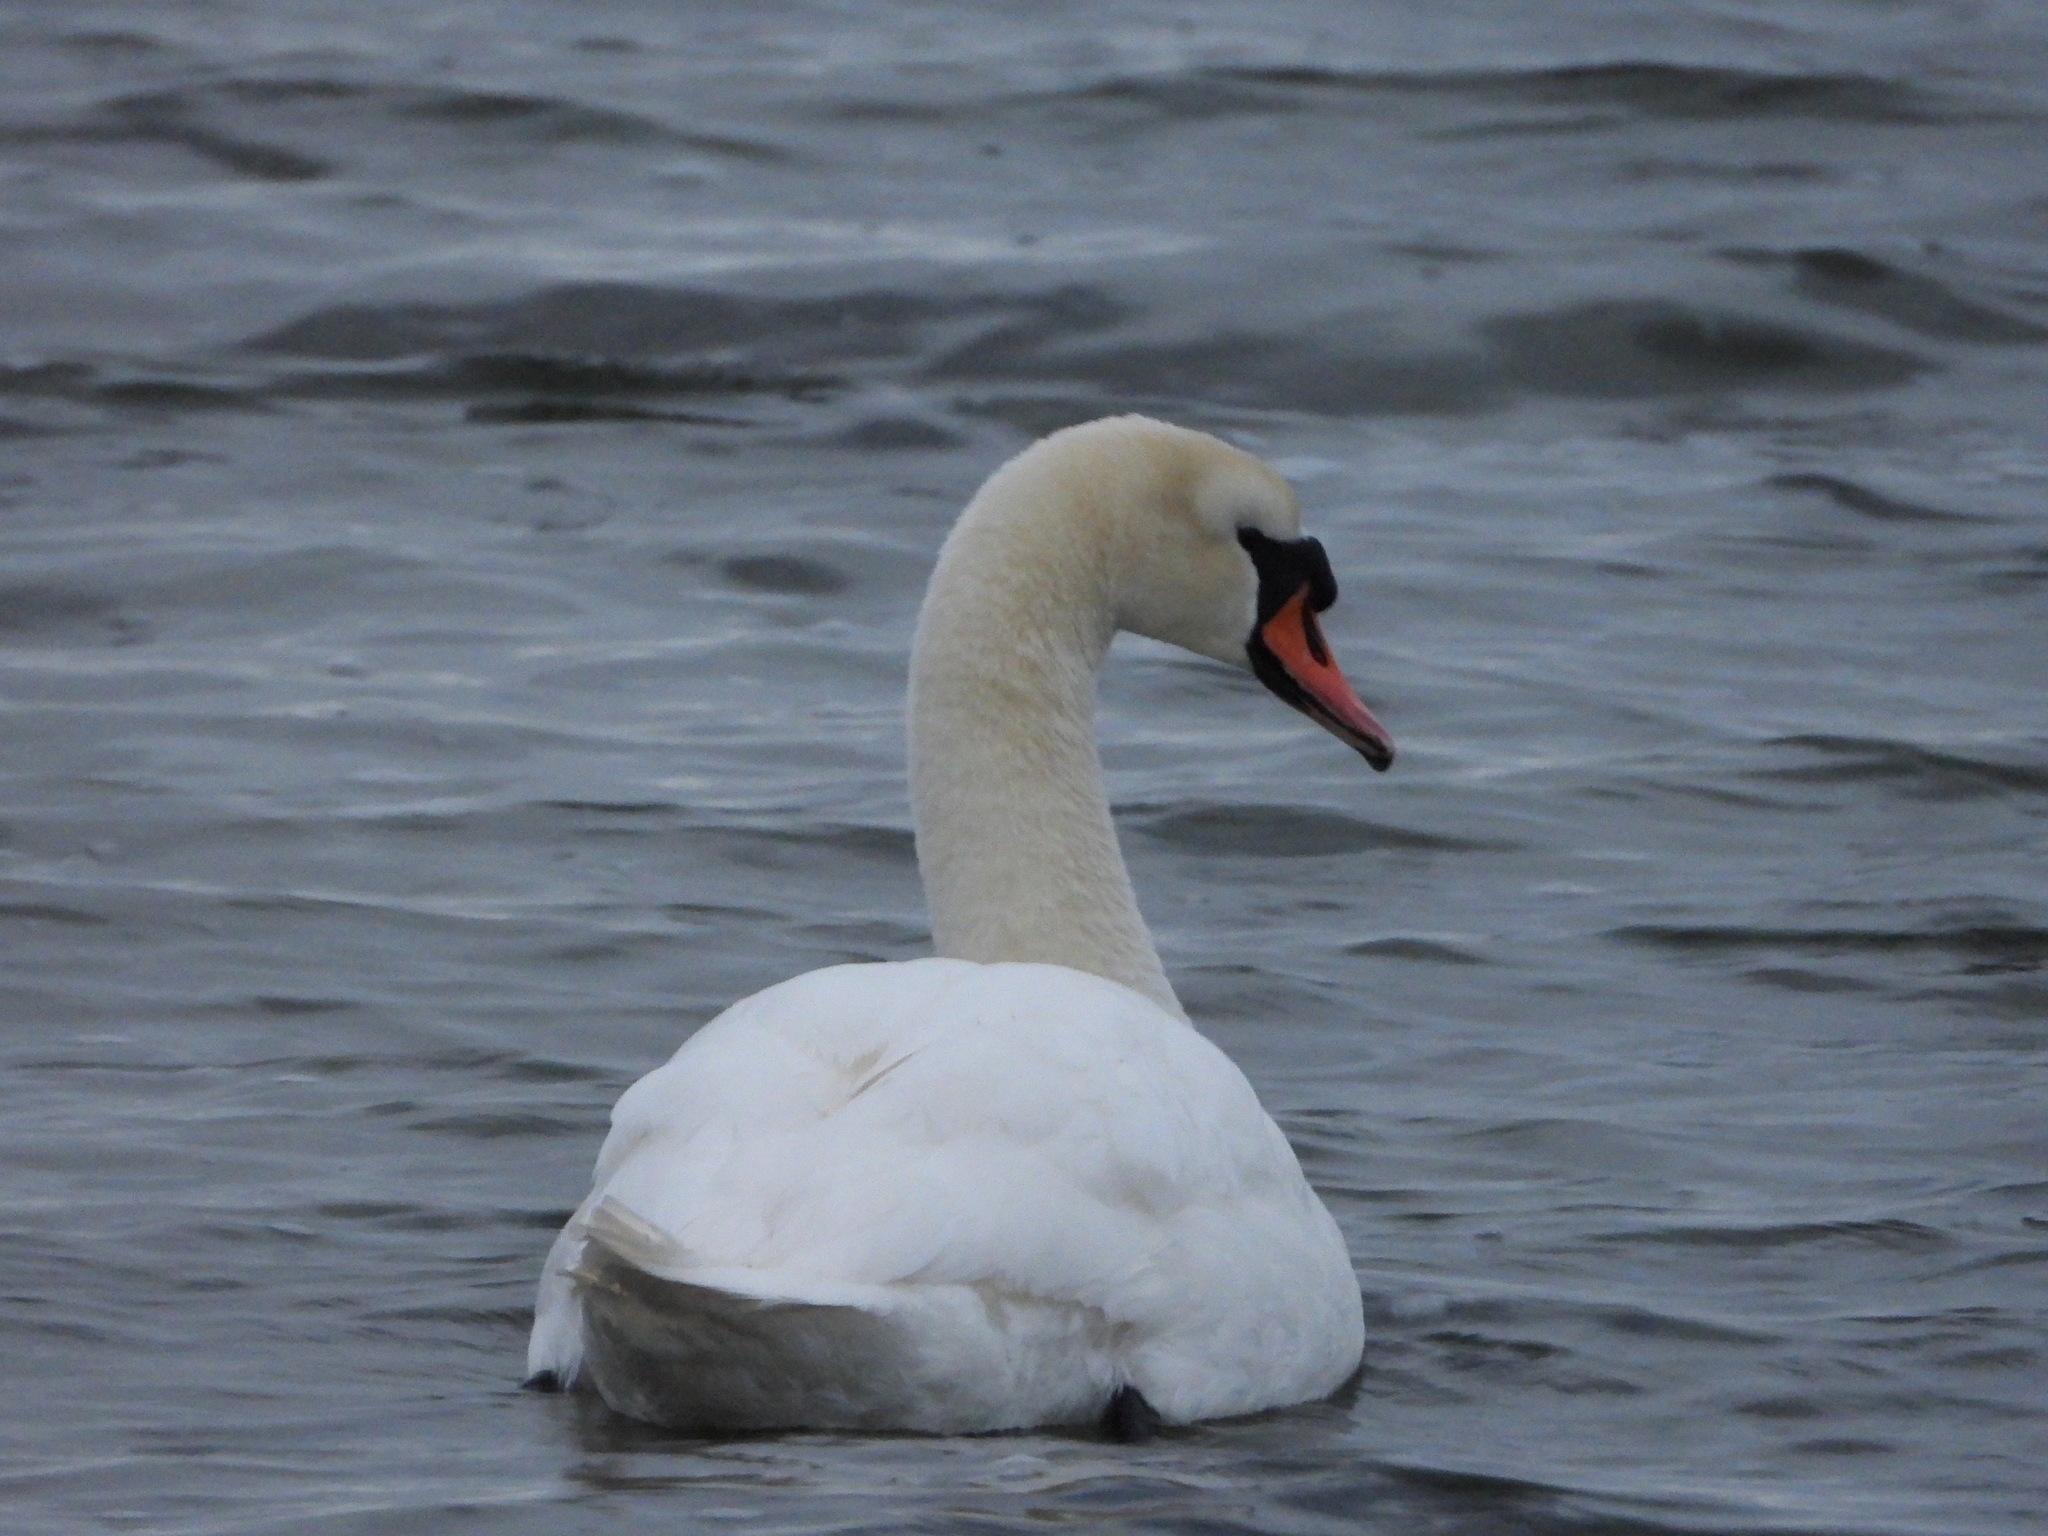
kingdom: Animalia
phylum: Chordata
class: Aves
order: Anseriformes
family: Anatidae
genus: Cygnus
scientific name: Cygnus olor
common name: Mute swan
